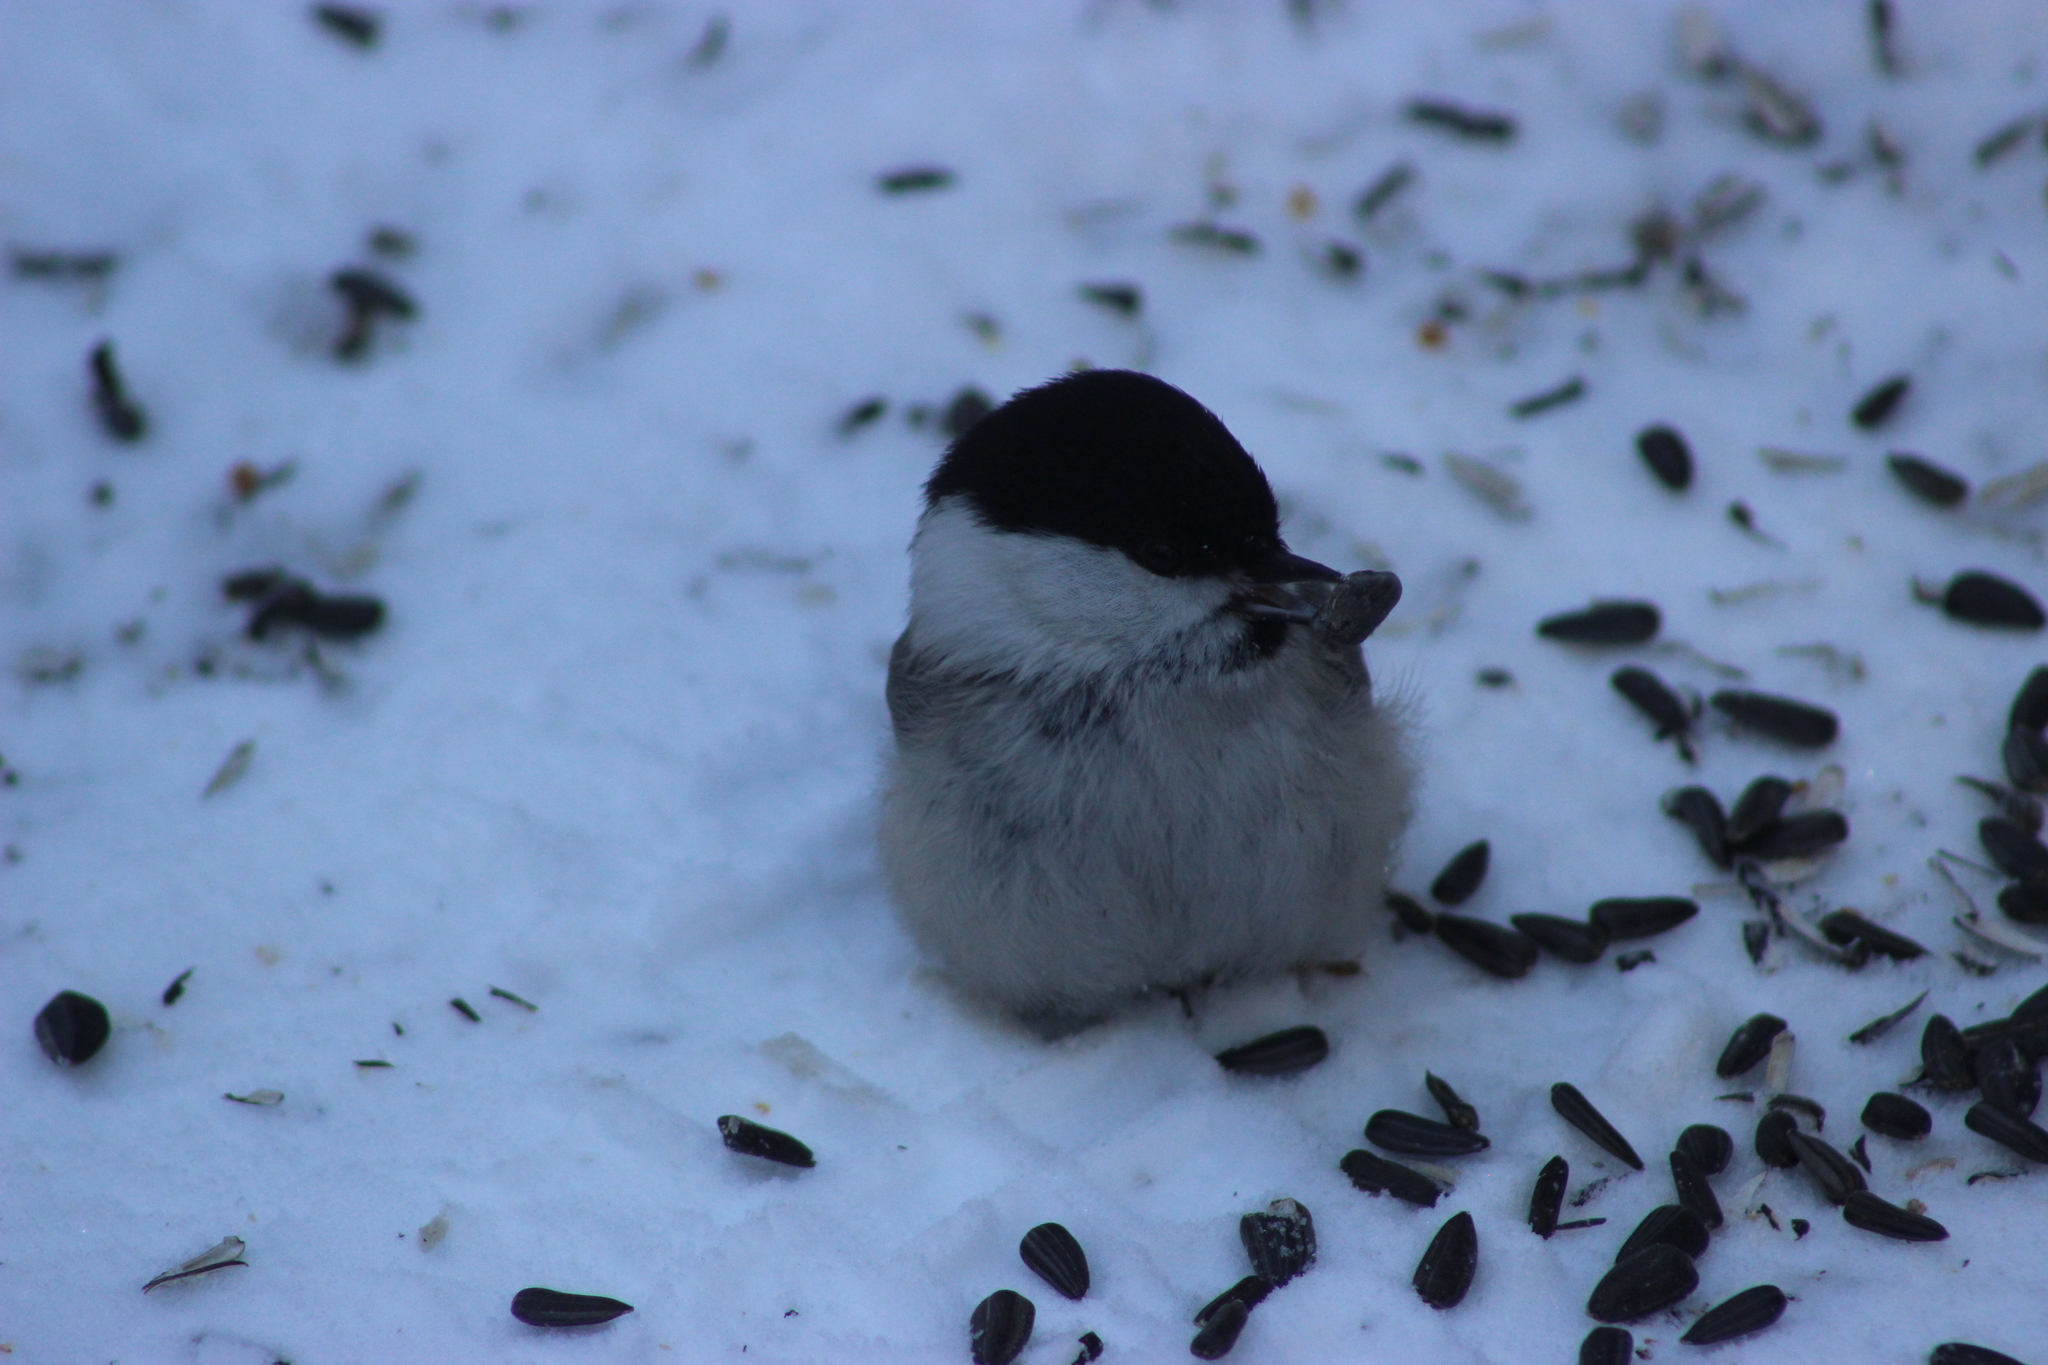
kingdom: Animalia
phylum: Chordata
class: Aves
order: Passeriformes
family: Paridae
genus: Poecile
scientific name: Poecile montanus
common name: Willow tit
